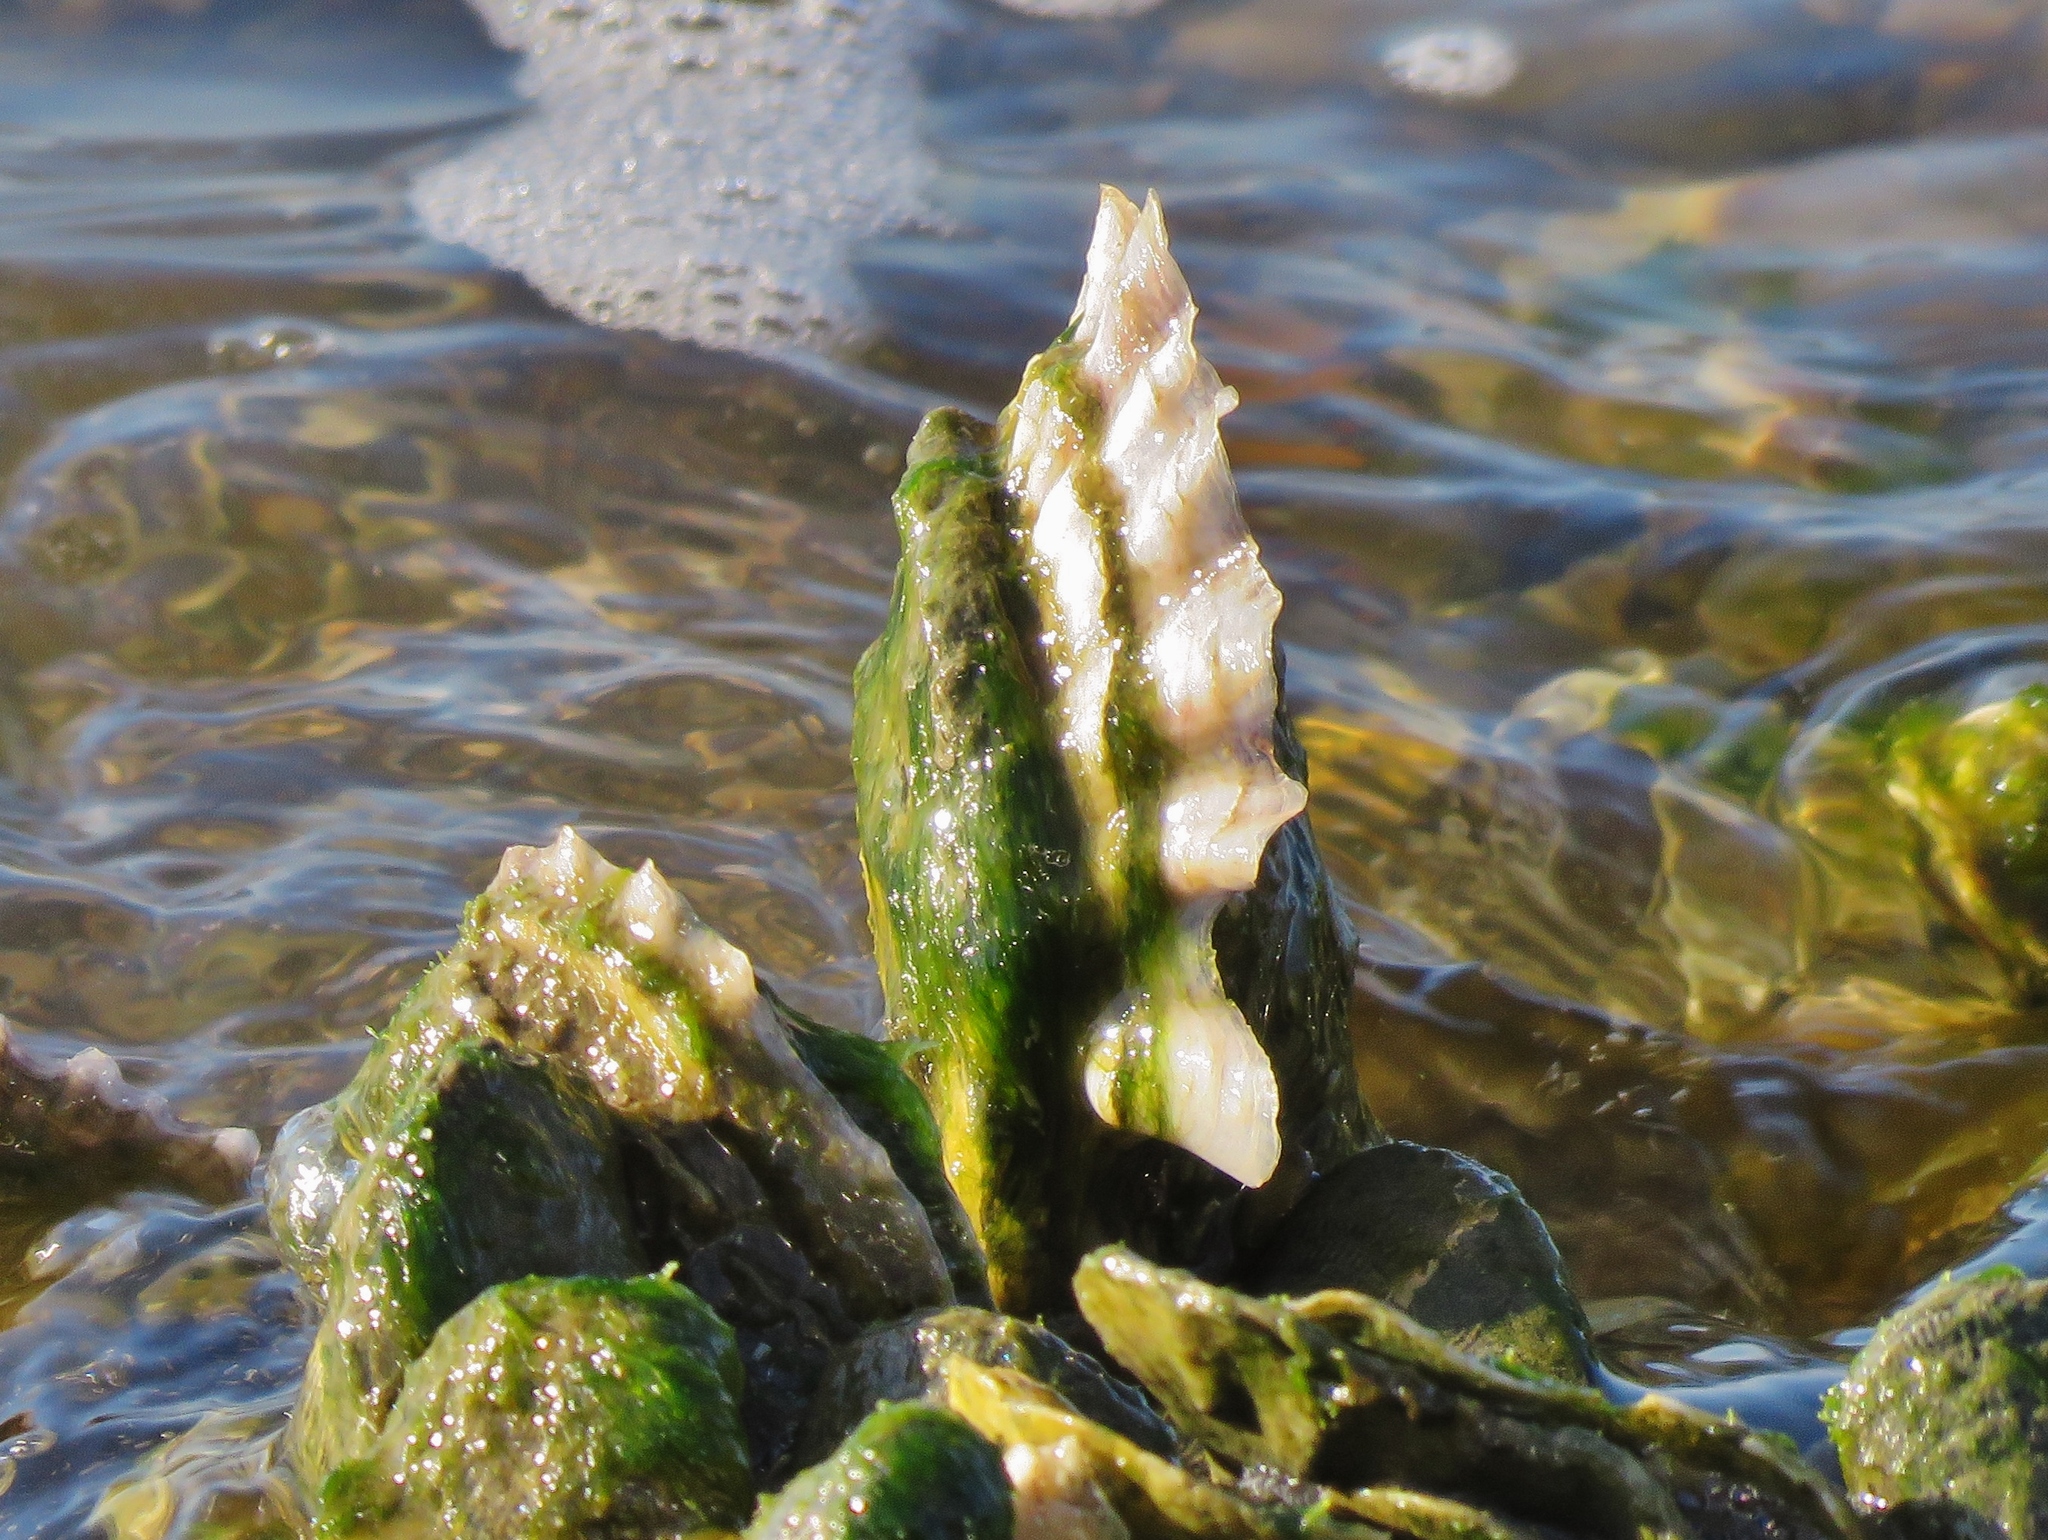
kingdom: Animalia
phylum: Mollusca
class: Bivalvia
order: Ostreida
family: Ostreidae
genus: Crassostrea
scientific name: Crassostrea virginica
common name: American oyster
